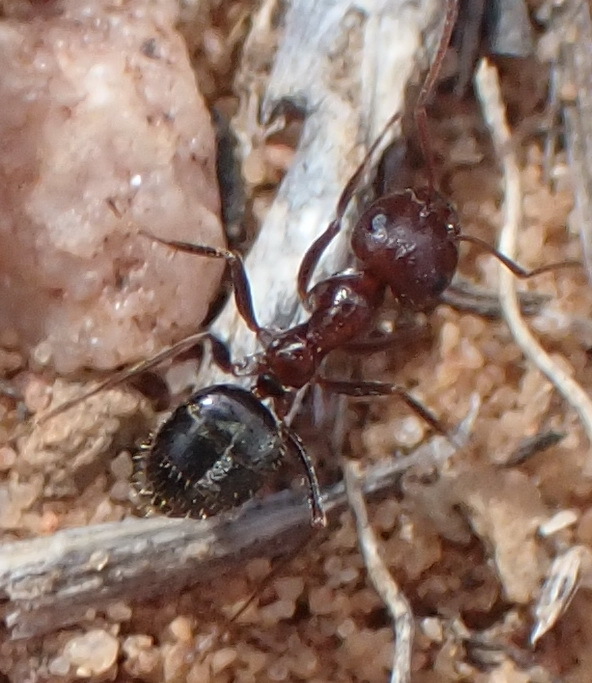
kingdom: Animalia
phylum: Arthropoda
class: Insecta
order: Hymenoptera
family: Formicidae
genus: Anoplolepis
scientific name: Anoplolepis steingroeveri
